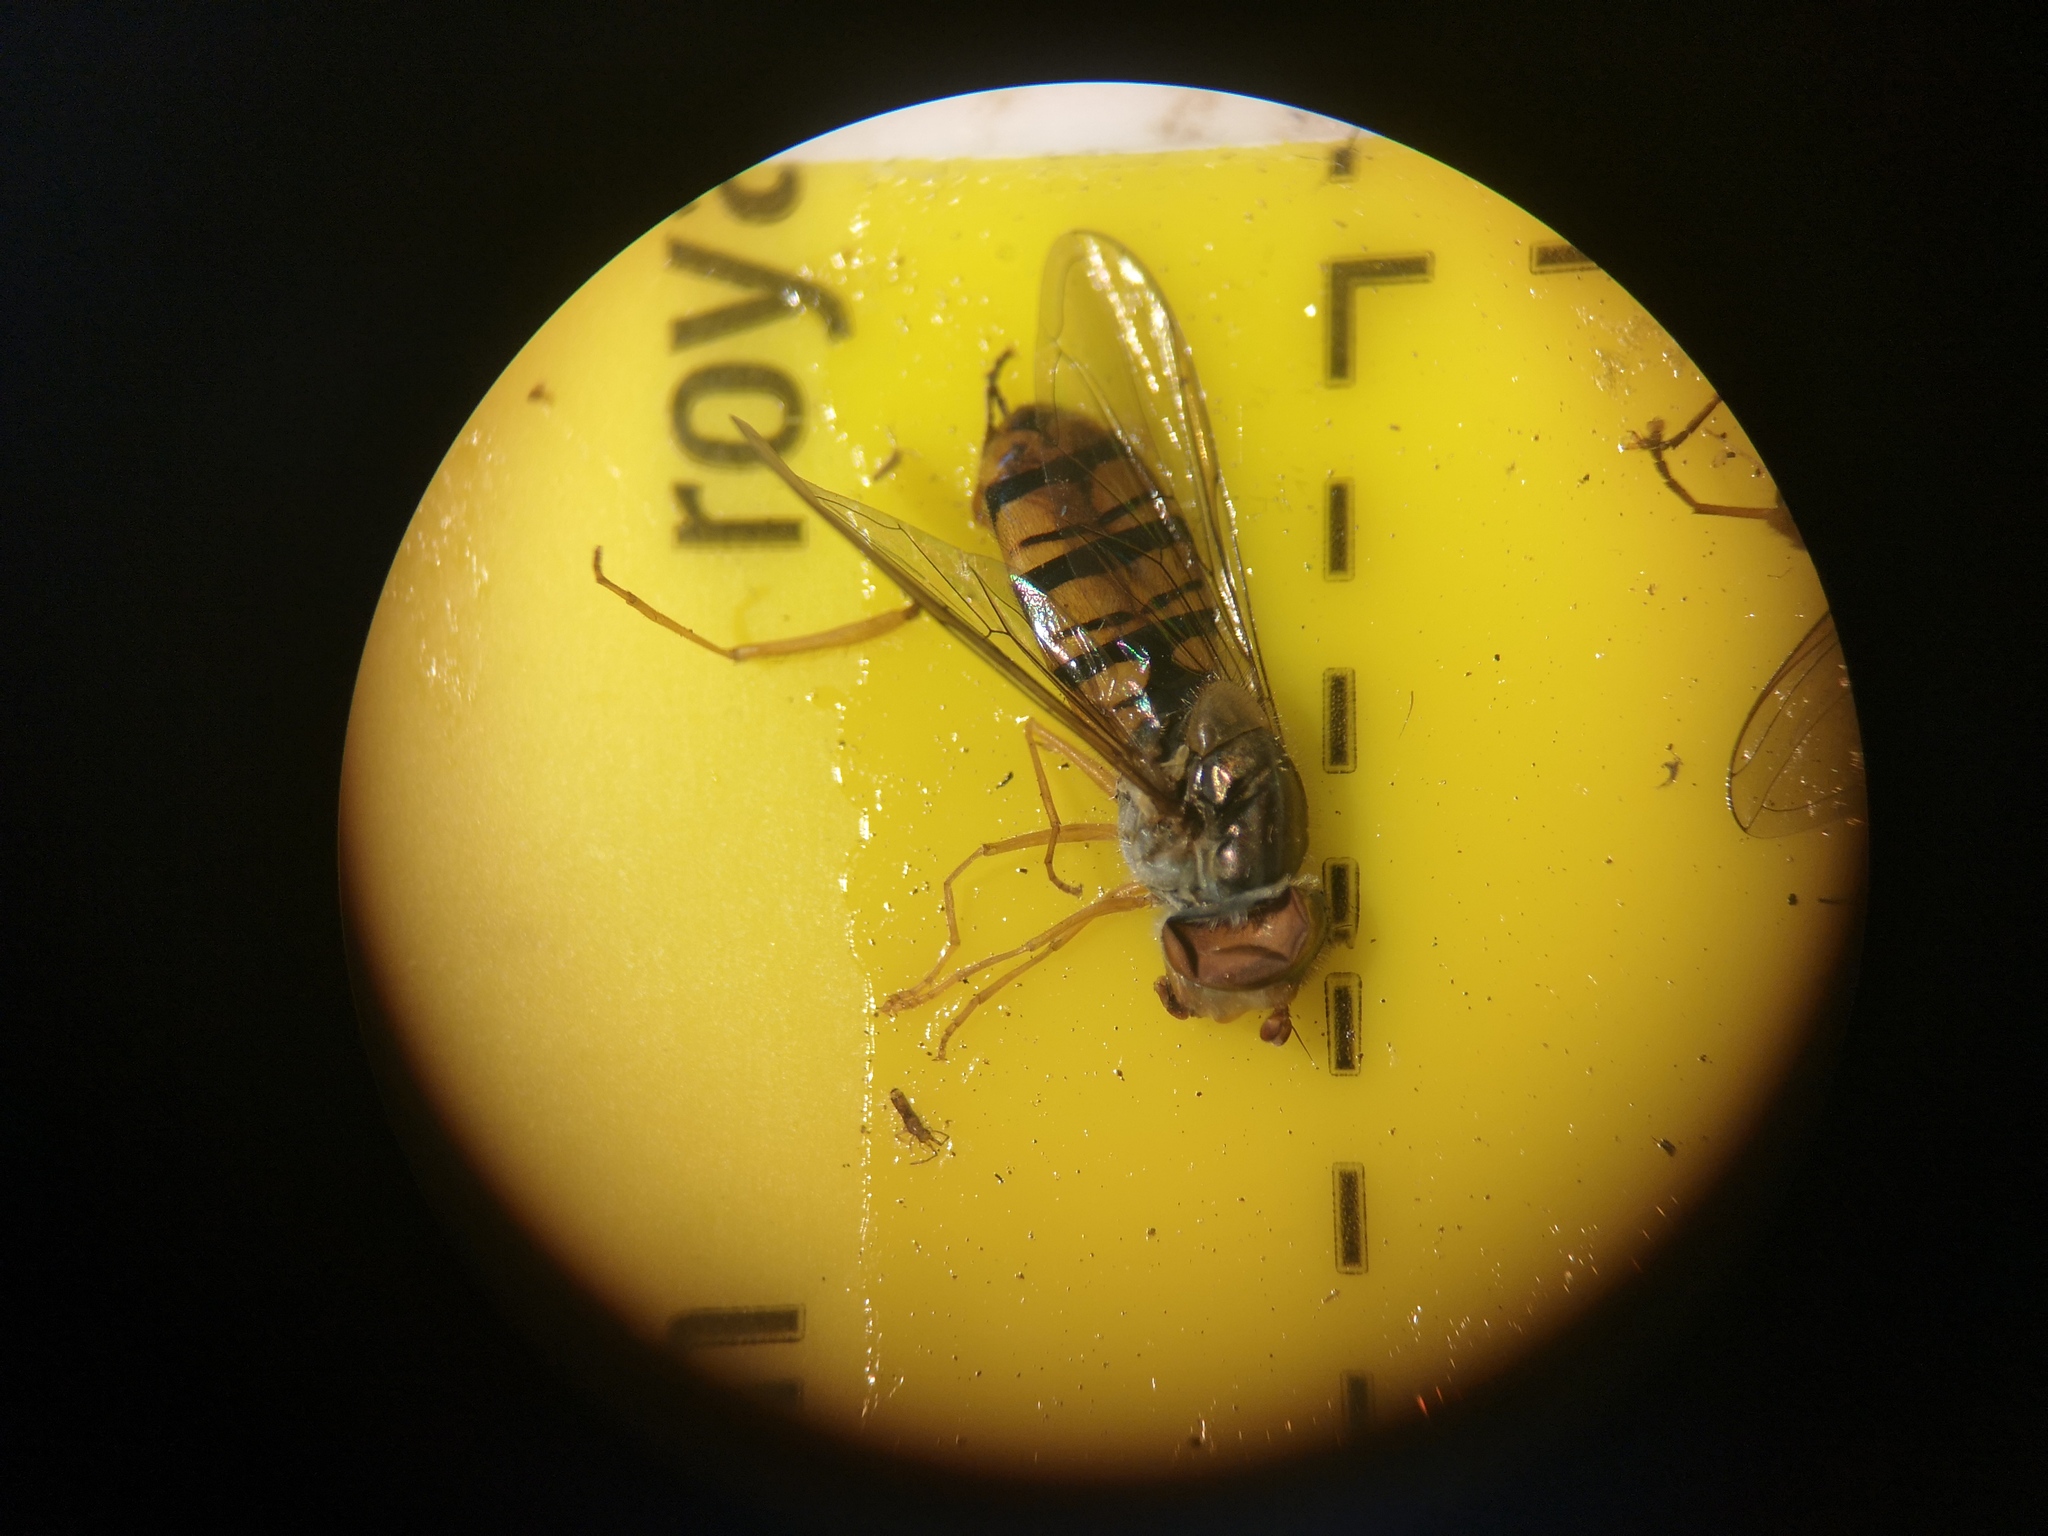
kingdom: Animalia
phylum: Arthropoda
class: Insecta
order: Diptera
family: Syrphidae
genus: Episyrphus
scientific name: Episyrphus balteatus
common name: Marmalade hoverfly
